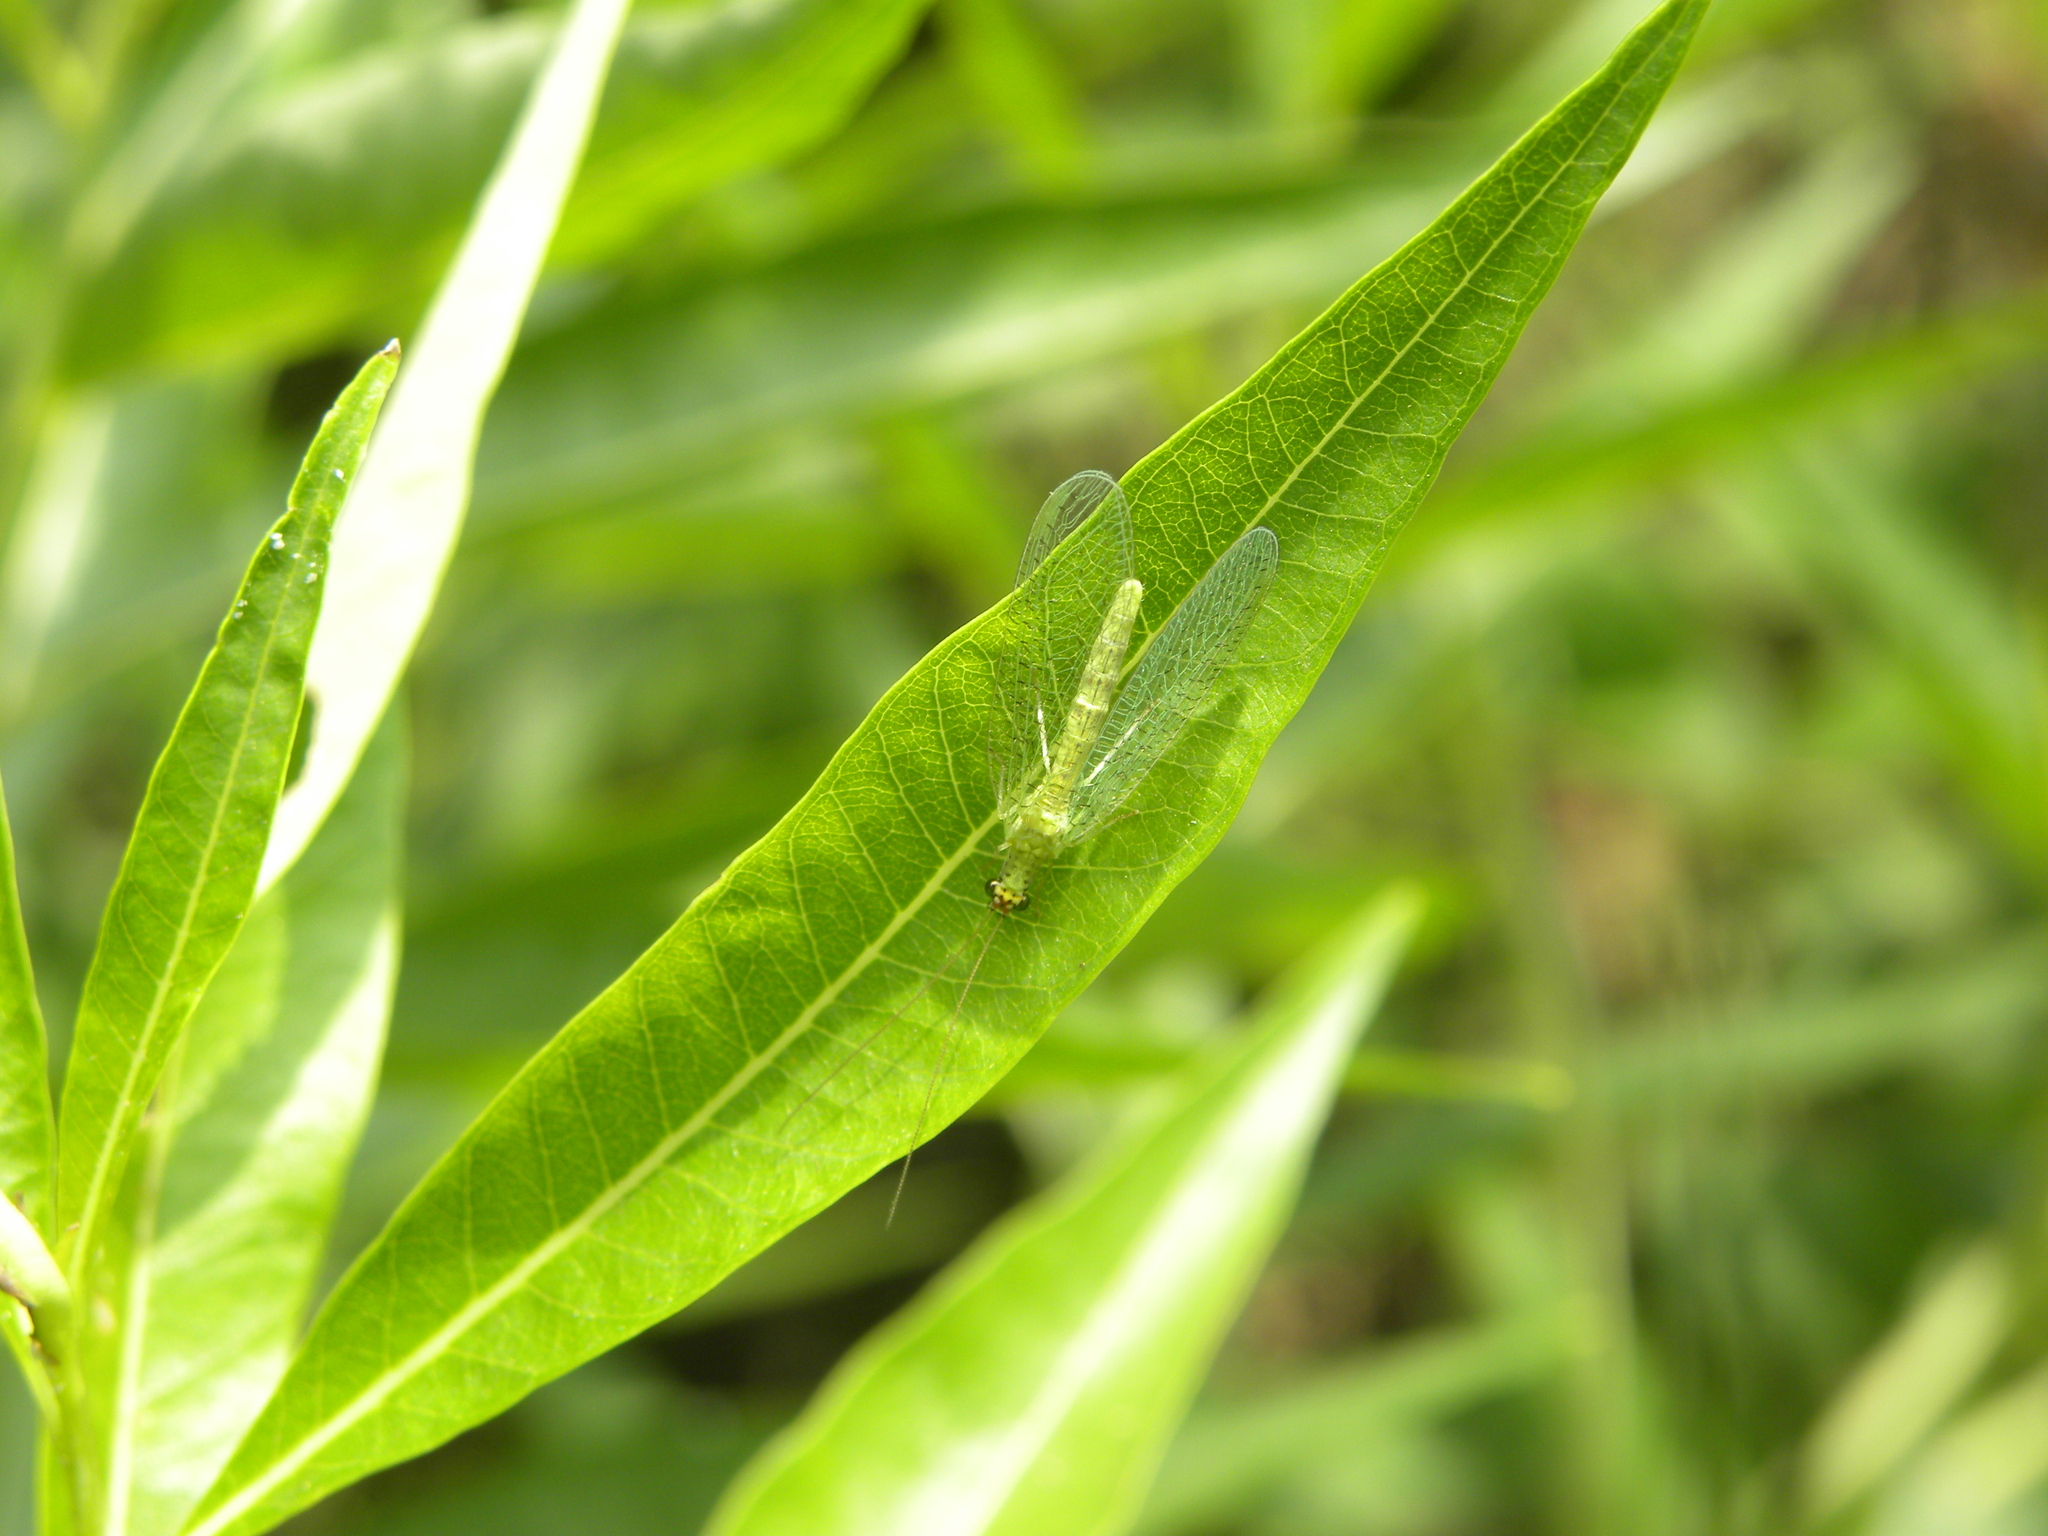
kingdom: Animalia
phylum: Arthropoda
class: Insecta
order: Neuroptera
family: Chrysopidae
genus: Chrysopa
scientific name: Chrysopa oculata
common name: Golden-eyed lacewing
